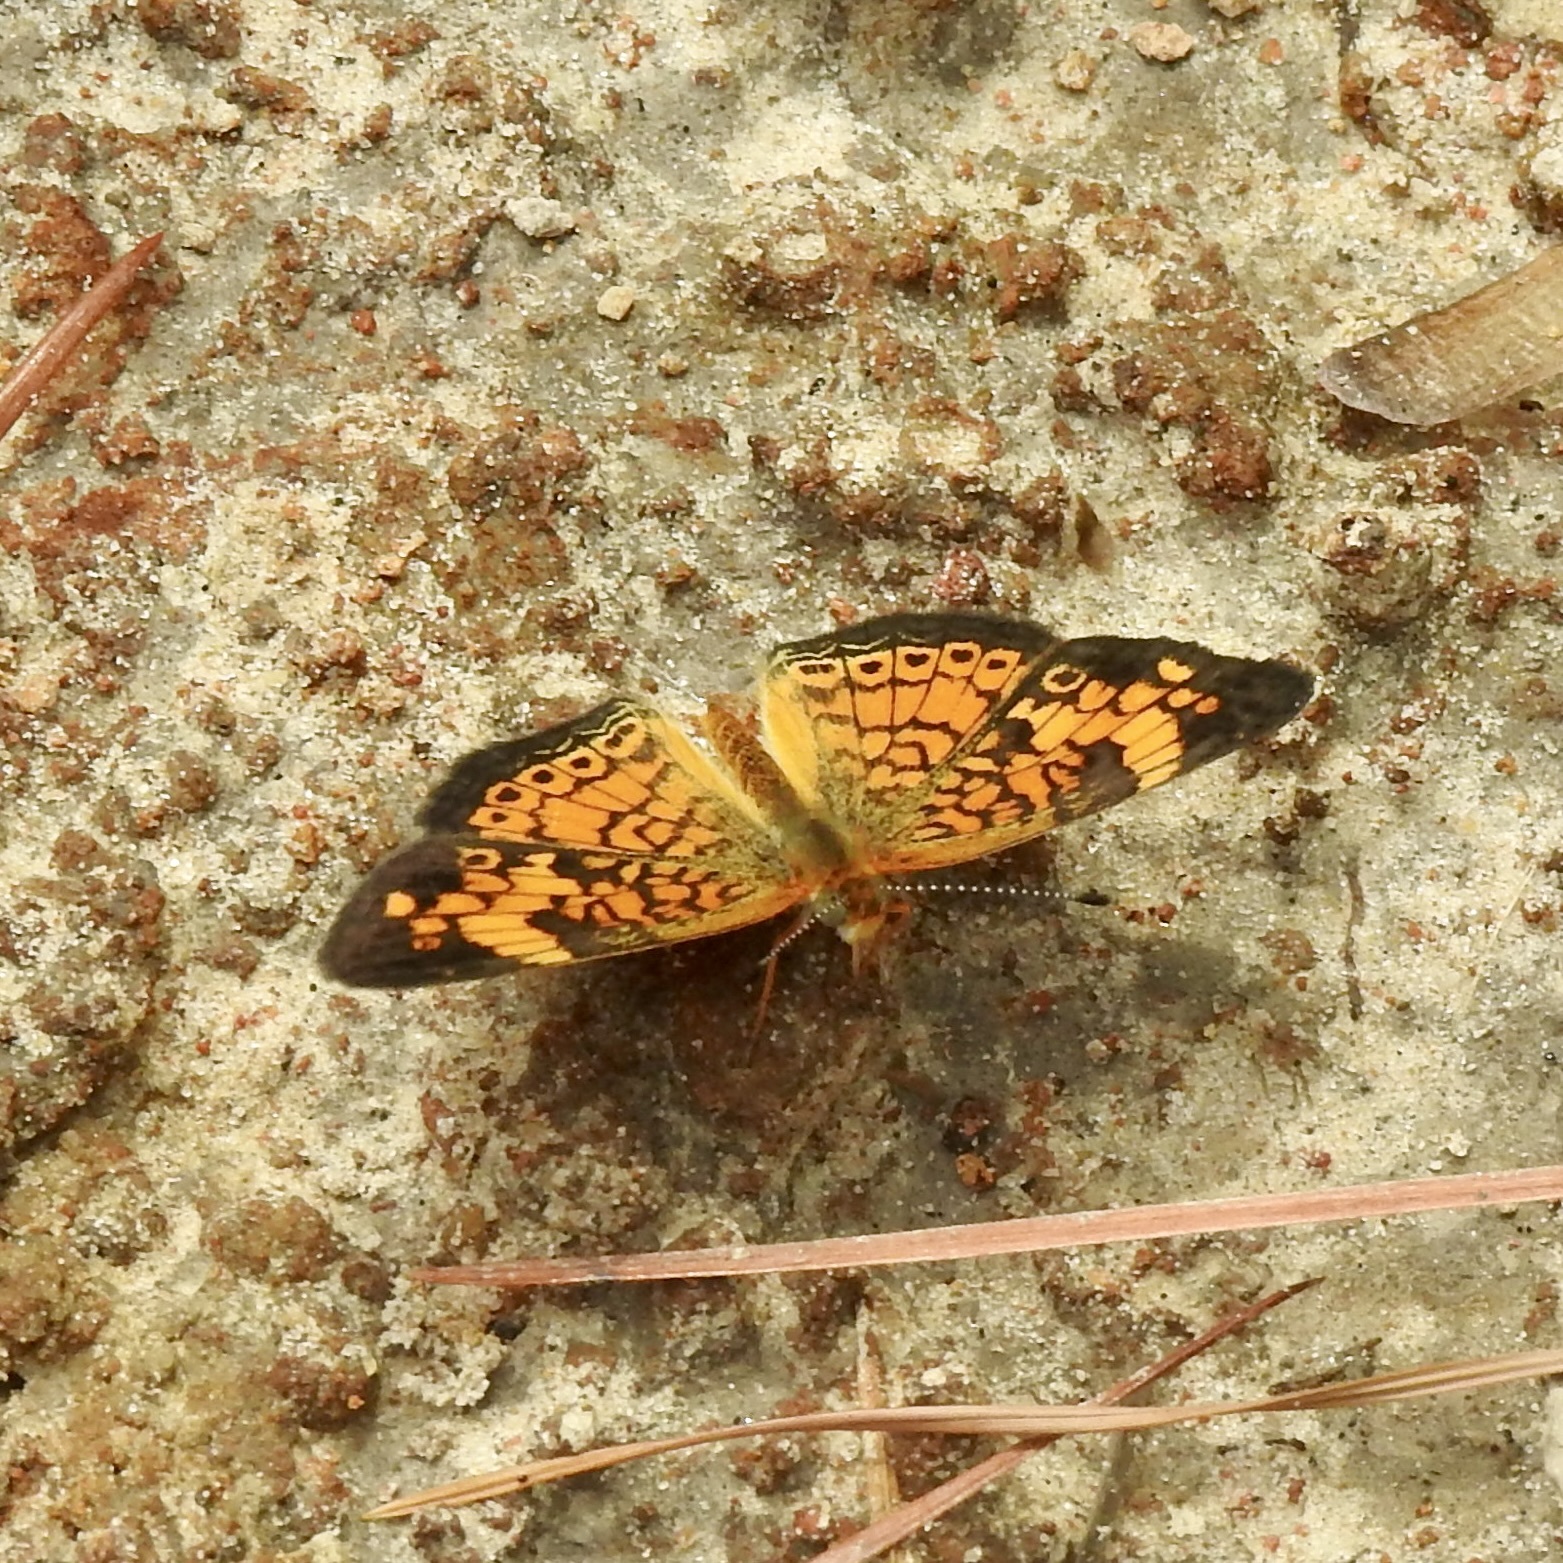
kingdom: Animalia
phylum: Arthropoda
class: Insecta
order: Lepidoptera
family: Nymphalidae
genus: Phyciodes
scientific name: Phyciodes tharos
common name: Pearl crescent
